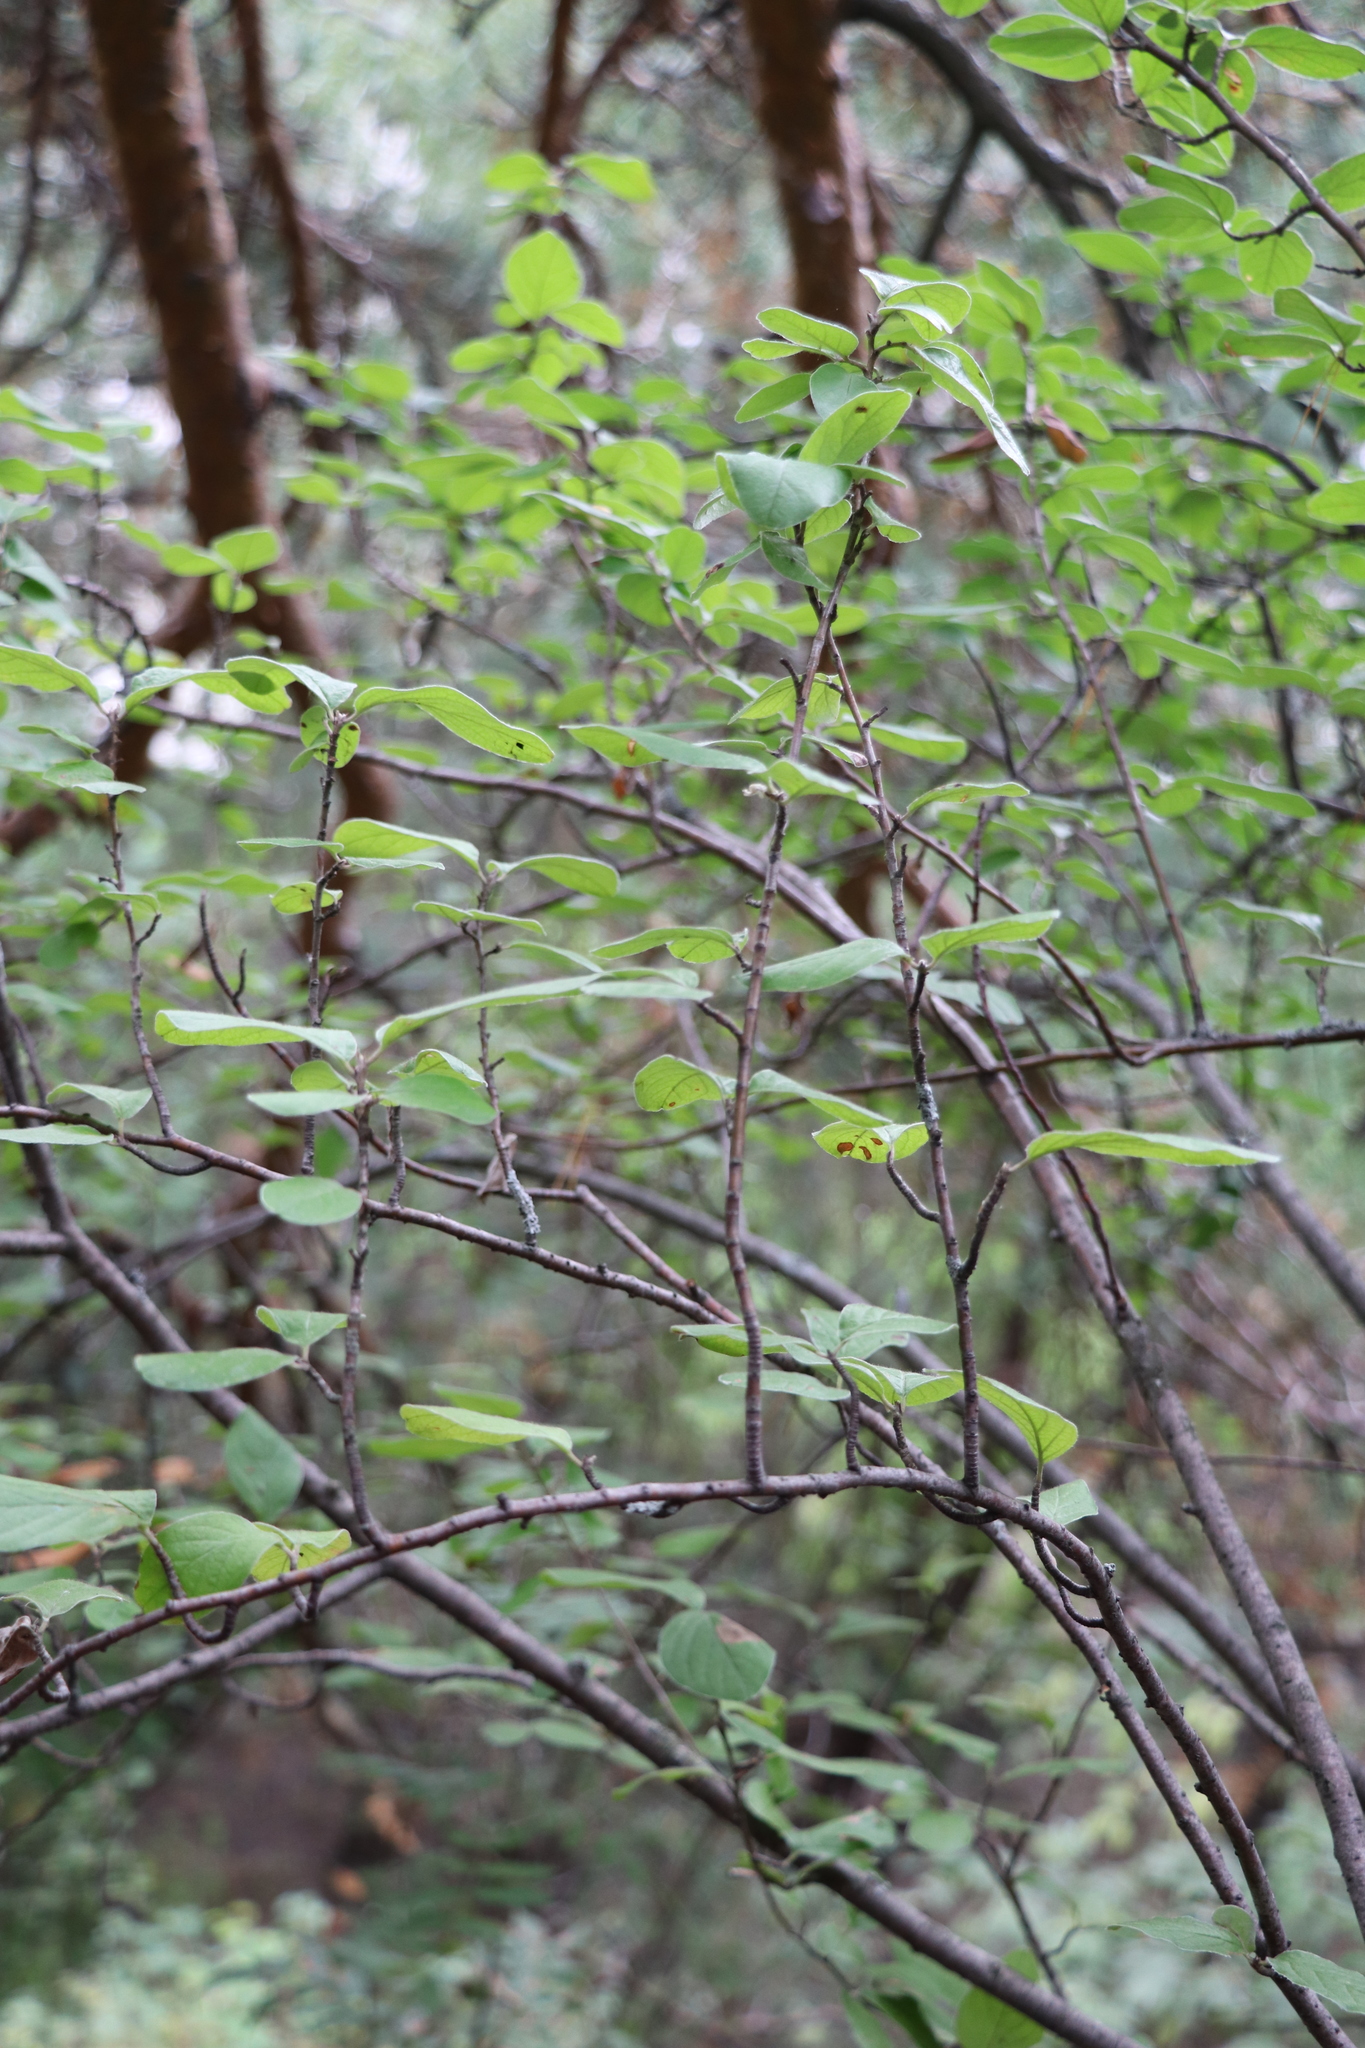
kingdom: Plantae
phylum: Tracheophyta
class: Magnoliopsida
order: Rosales
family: Rosaceae
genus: Cotoneaster
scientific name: Cotoneaster melanocarpus
